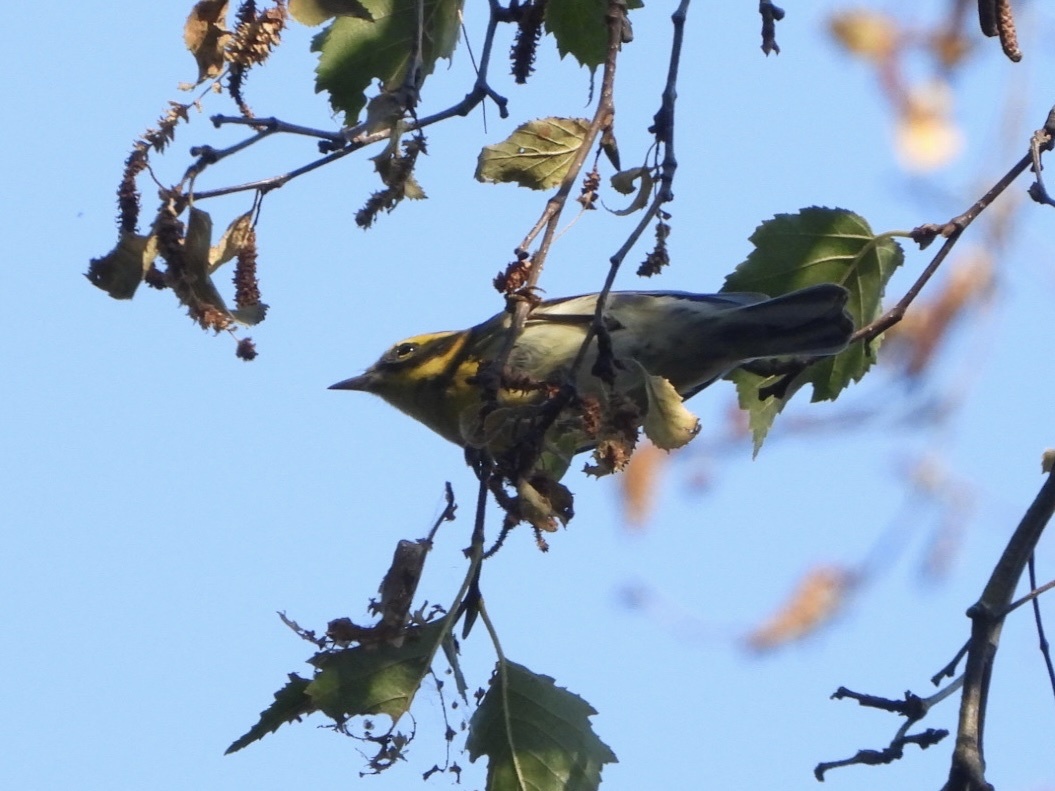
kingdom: Animalia
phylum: Chordata
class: Aves
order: Passeriformes
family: Parulidae
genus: Setophaga
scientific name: Setophaga townsendi
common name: Townsend's warbler
